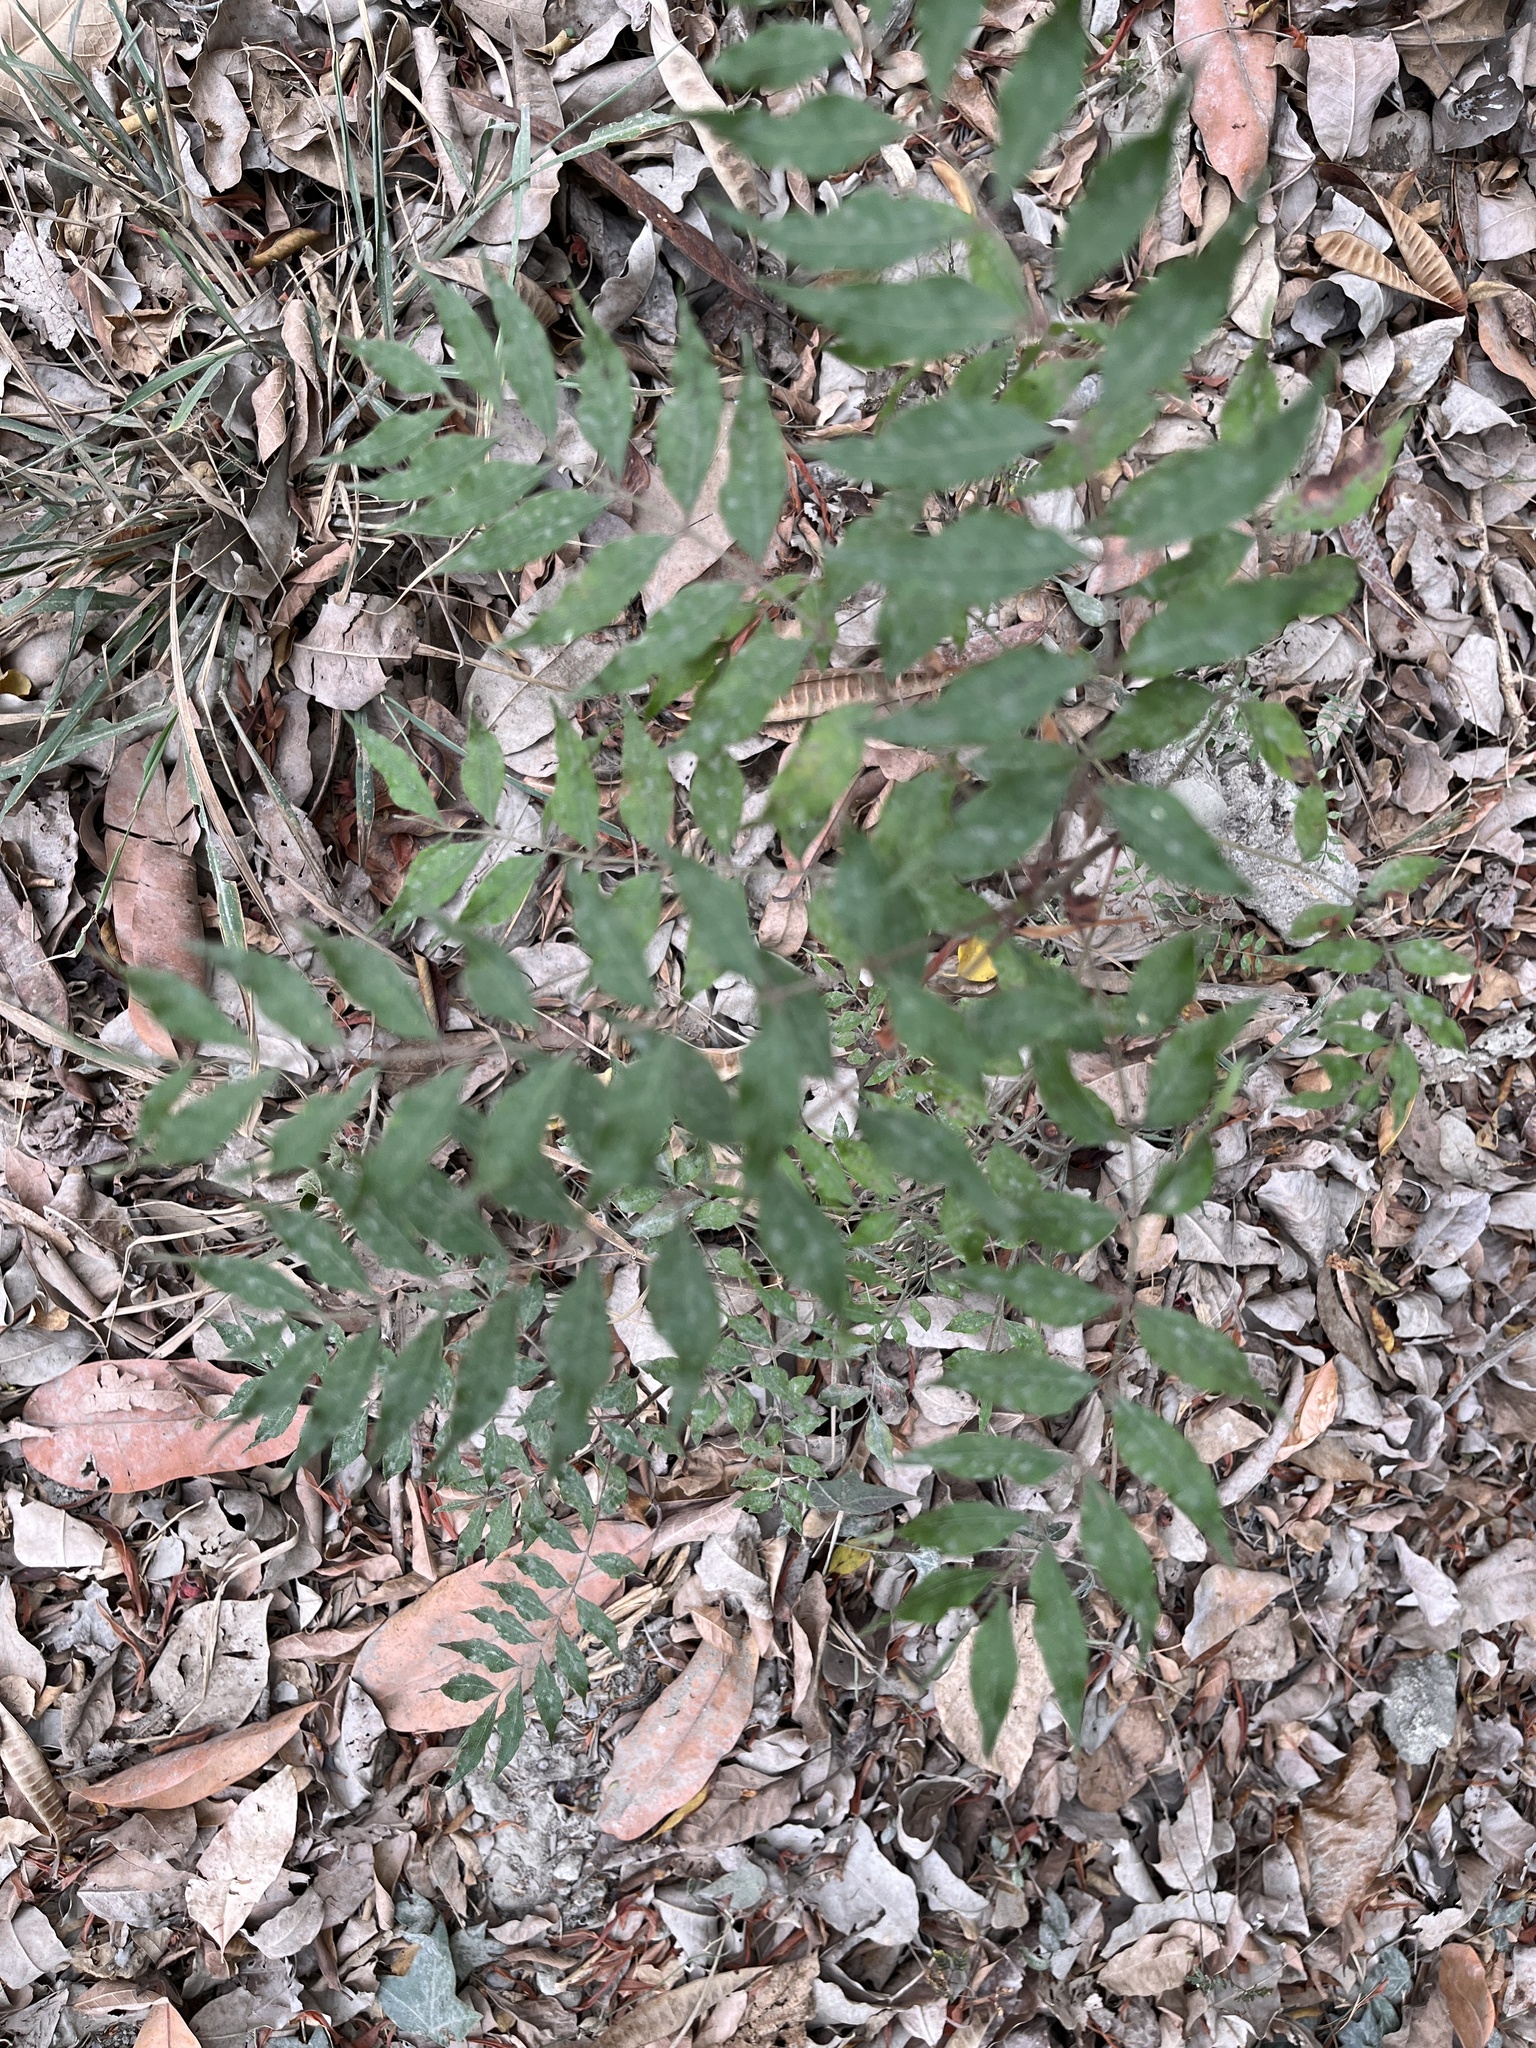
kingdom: Plantae
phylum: Tracheophyta
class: Magnoliopsida
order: Sapindales
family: Anacardiaceae
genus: Pistacia
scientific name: Pistacia chinensis
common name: Chinese pistache
